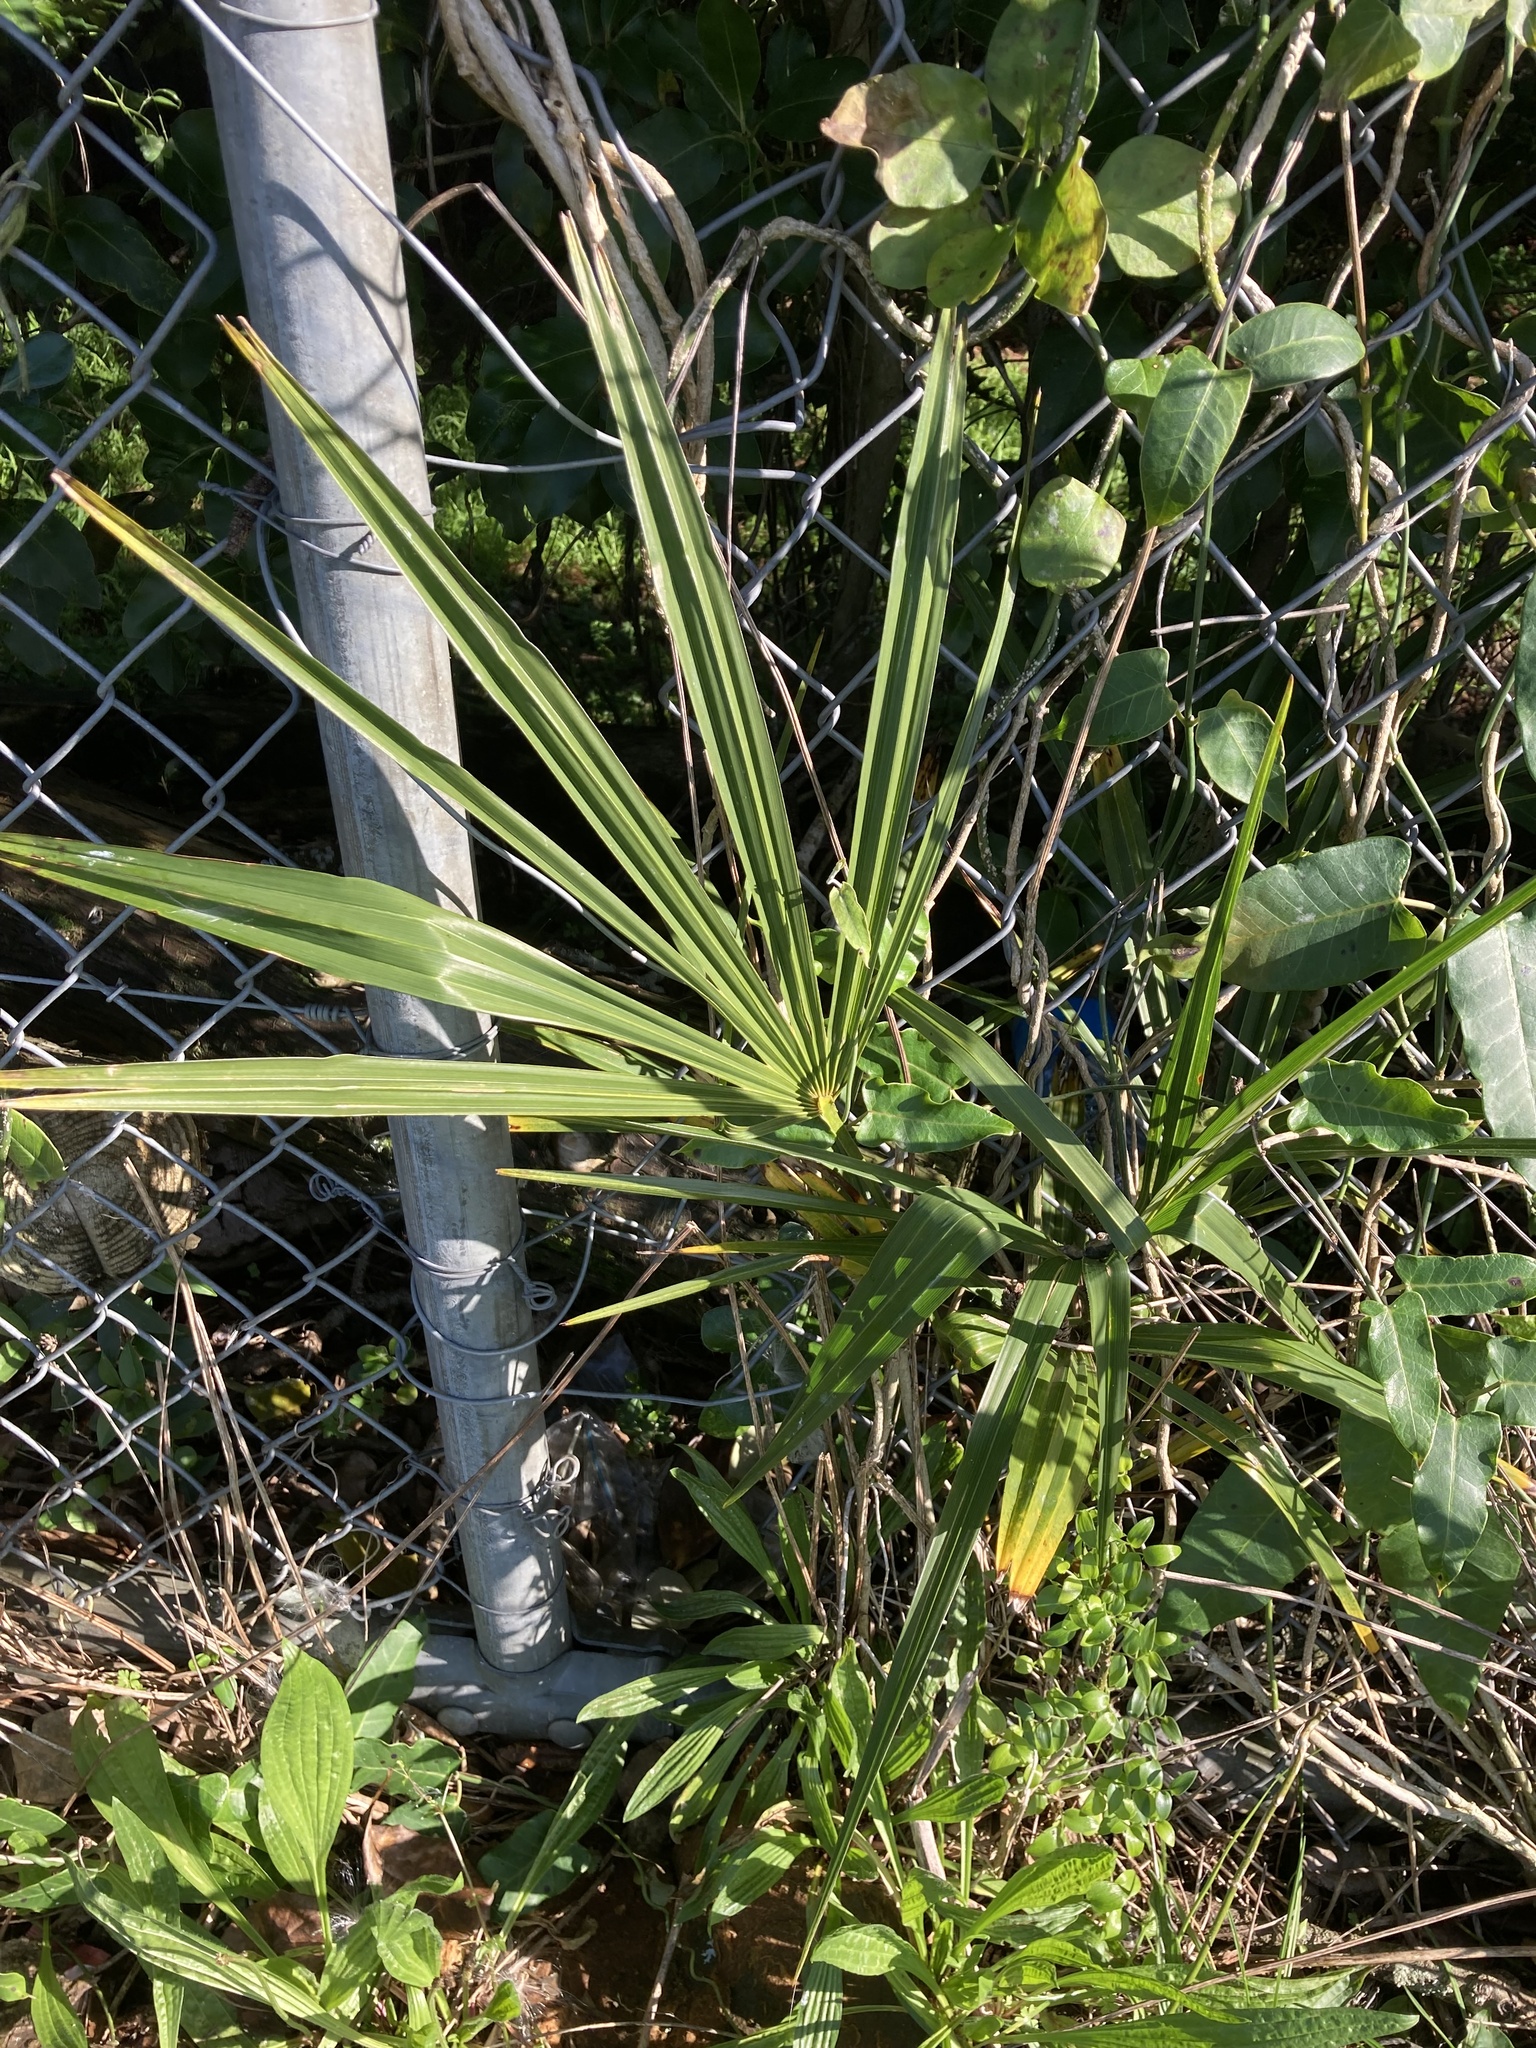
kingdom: Plantae
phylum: Tracheophyta
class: Liliopsida
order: Arecales
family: Arecaceae
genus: Trachycarpus
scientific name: Trachycarpus fortunei
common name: Chusan palm
